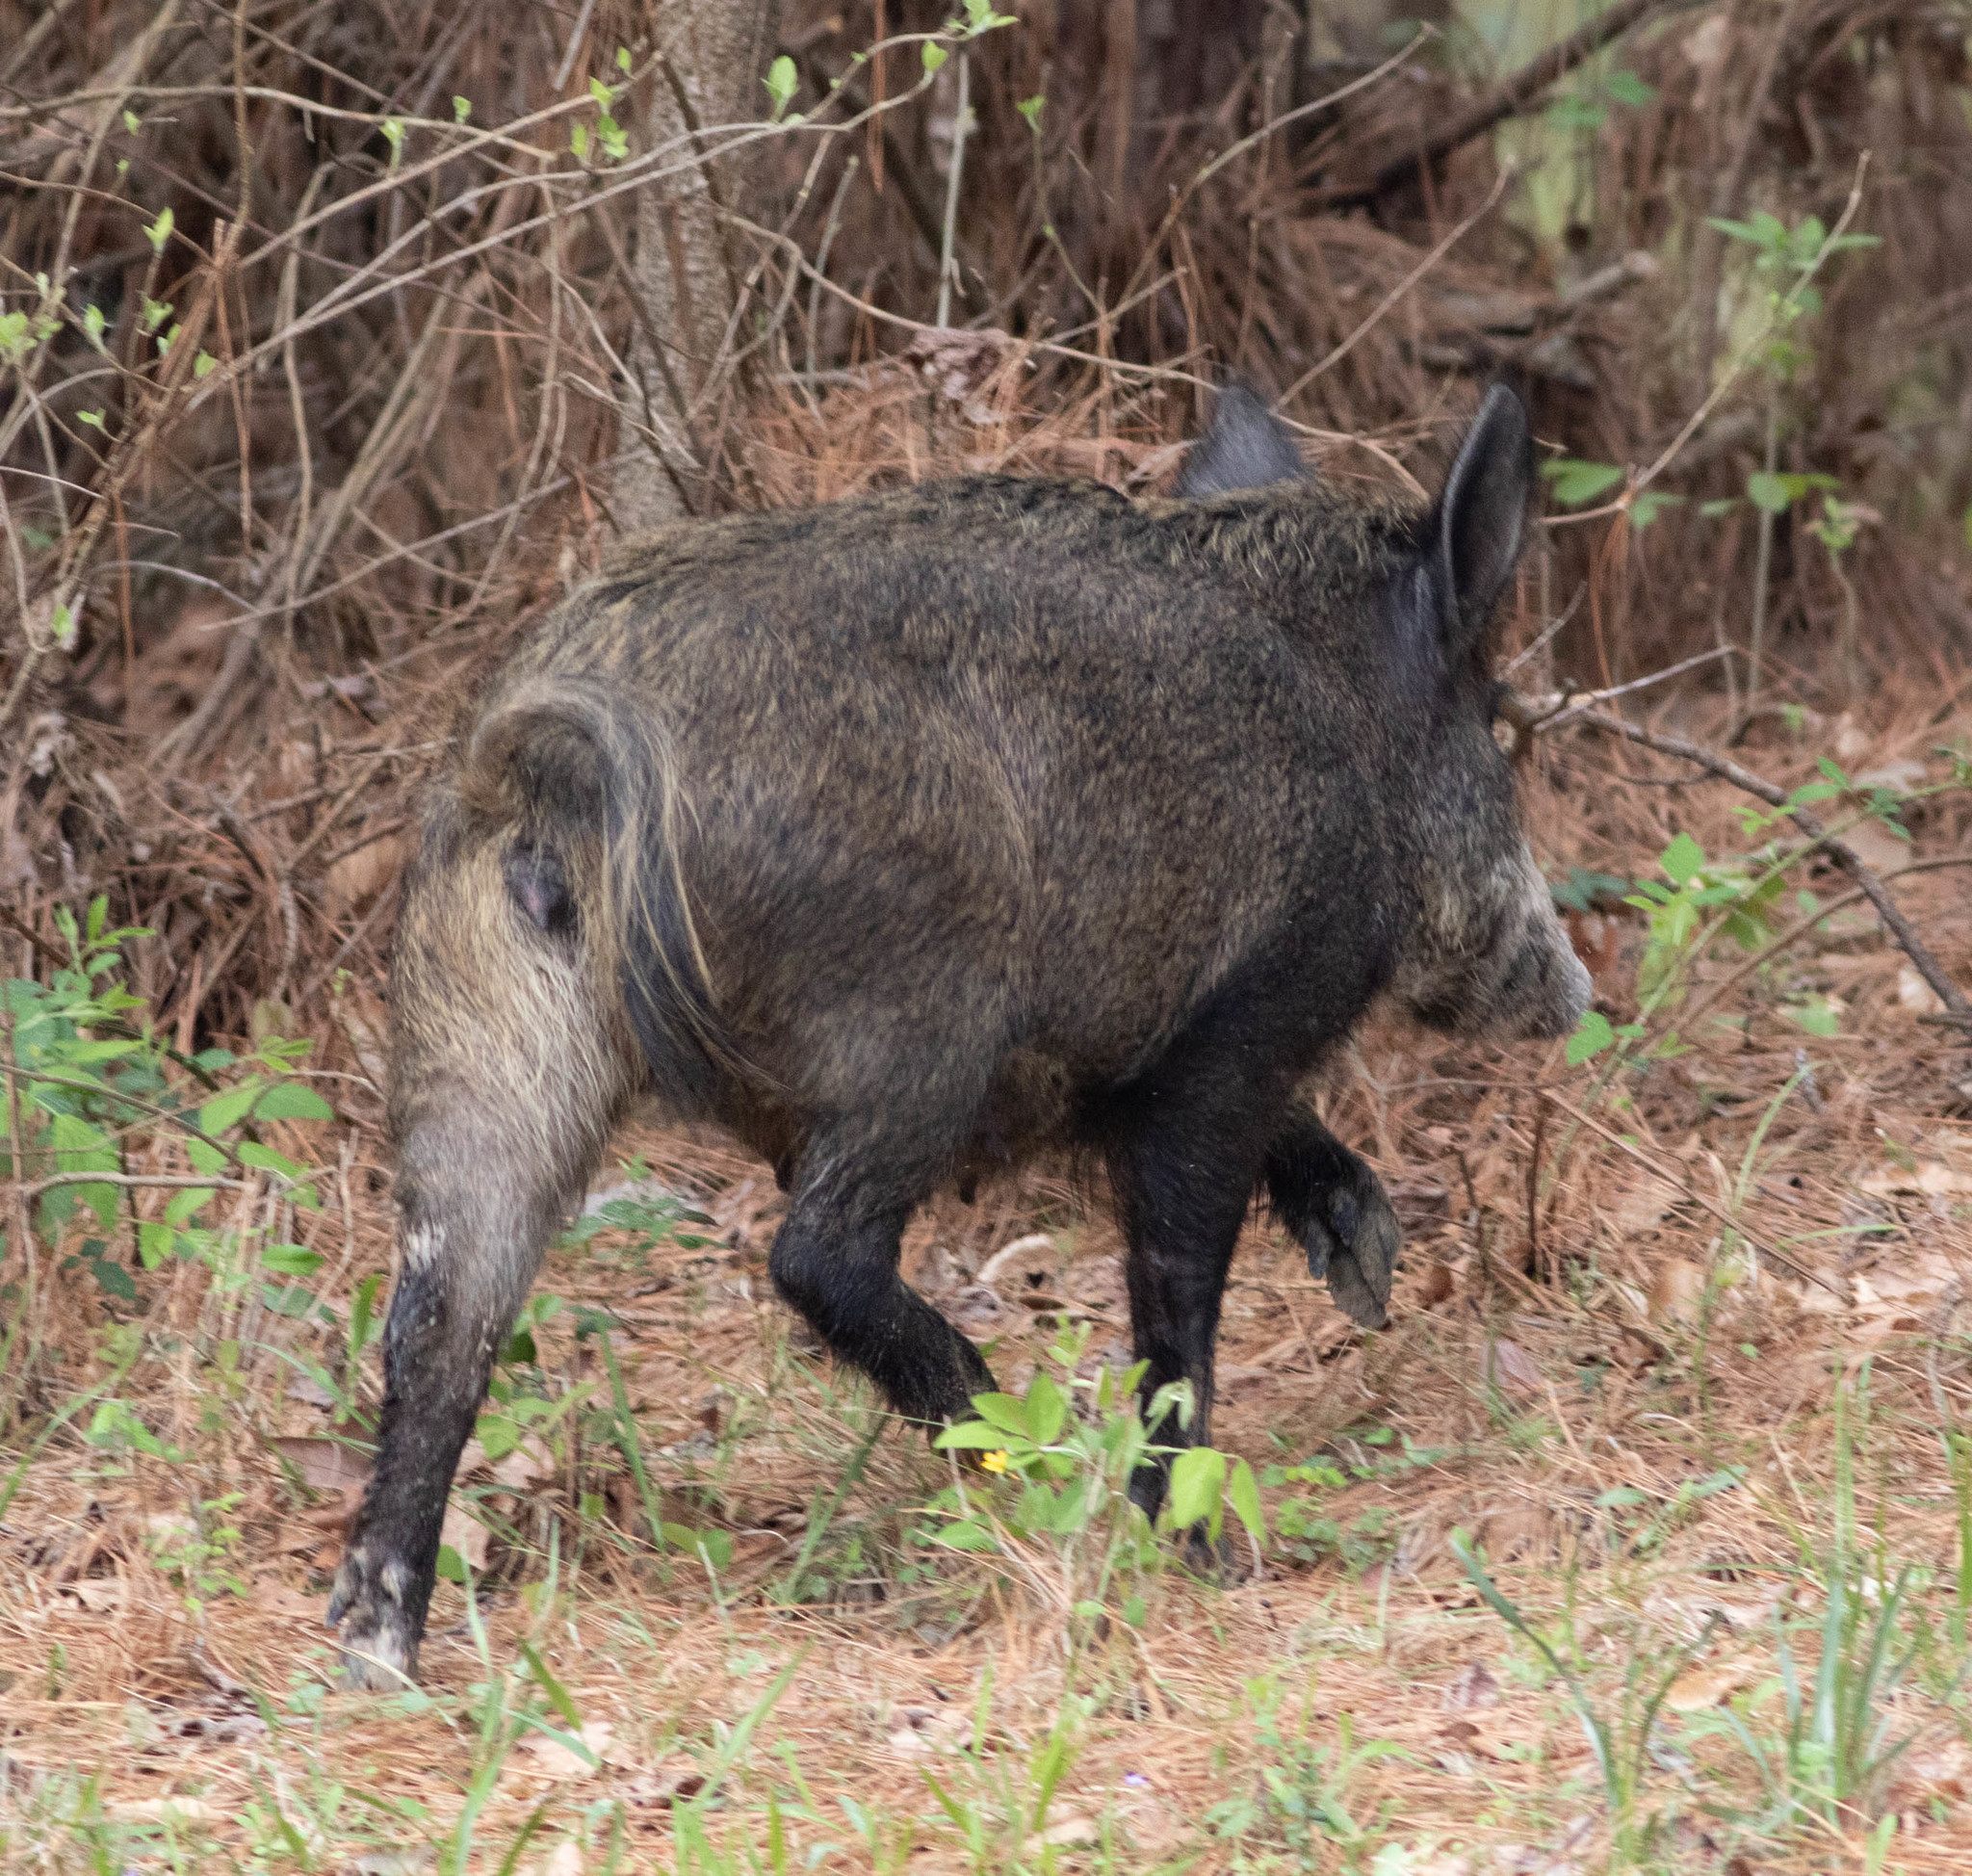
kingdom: Animalia
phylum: Chordata
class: Mammalia
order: Artiodactyla
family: Suidae
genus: Sus
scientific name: Sus scrofa
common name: Wild boar
